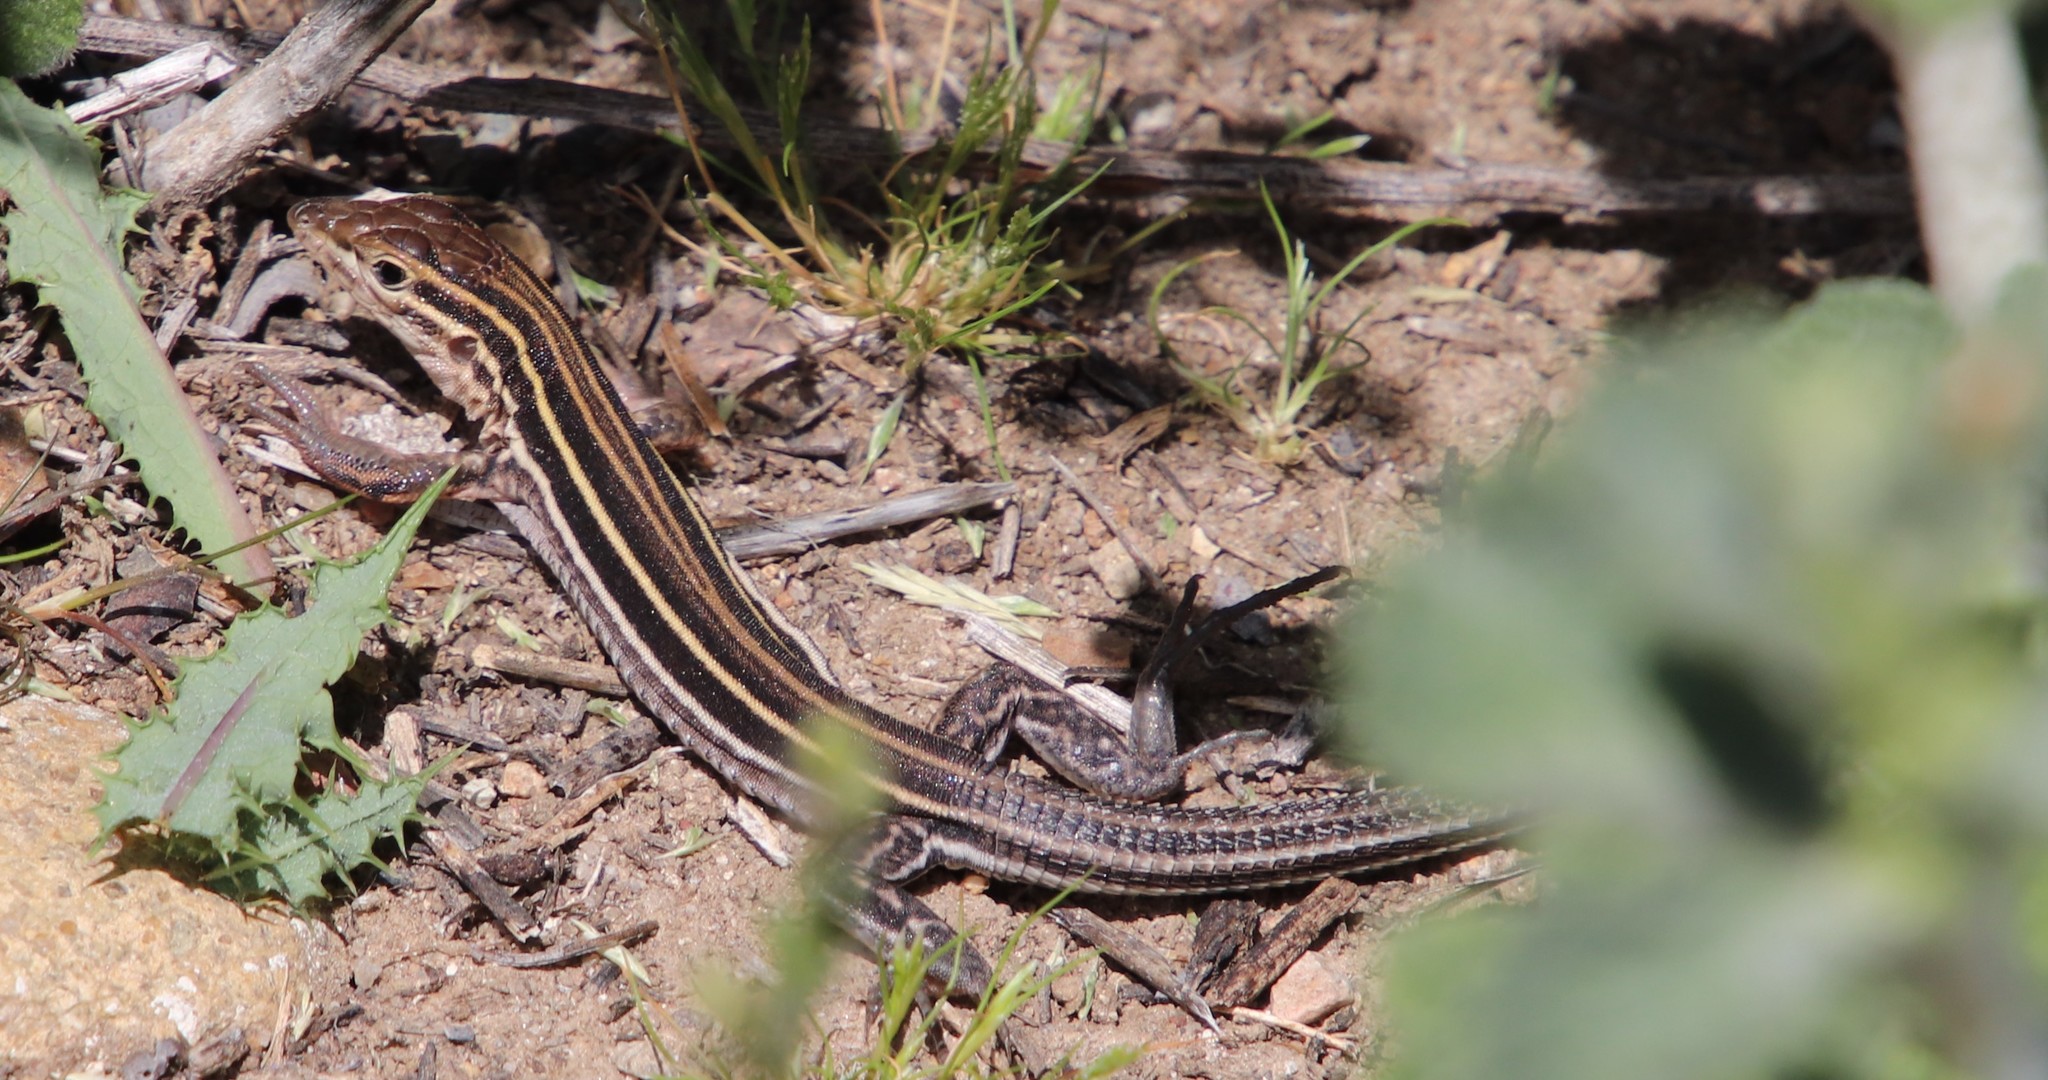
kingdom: Animalia
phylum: Chordata
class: Squamata
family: Teiidae
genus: Aspidoscelis
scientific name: Aspidoscelis hyperythrus
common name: Orange-throated race-runner
